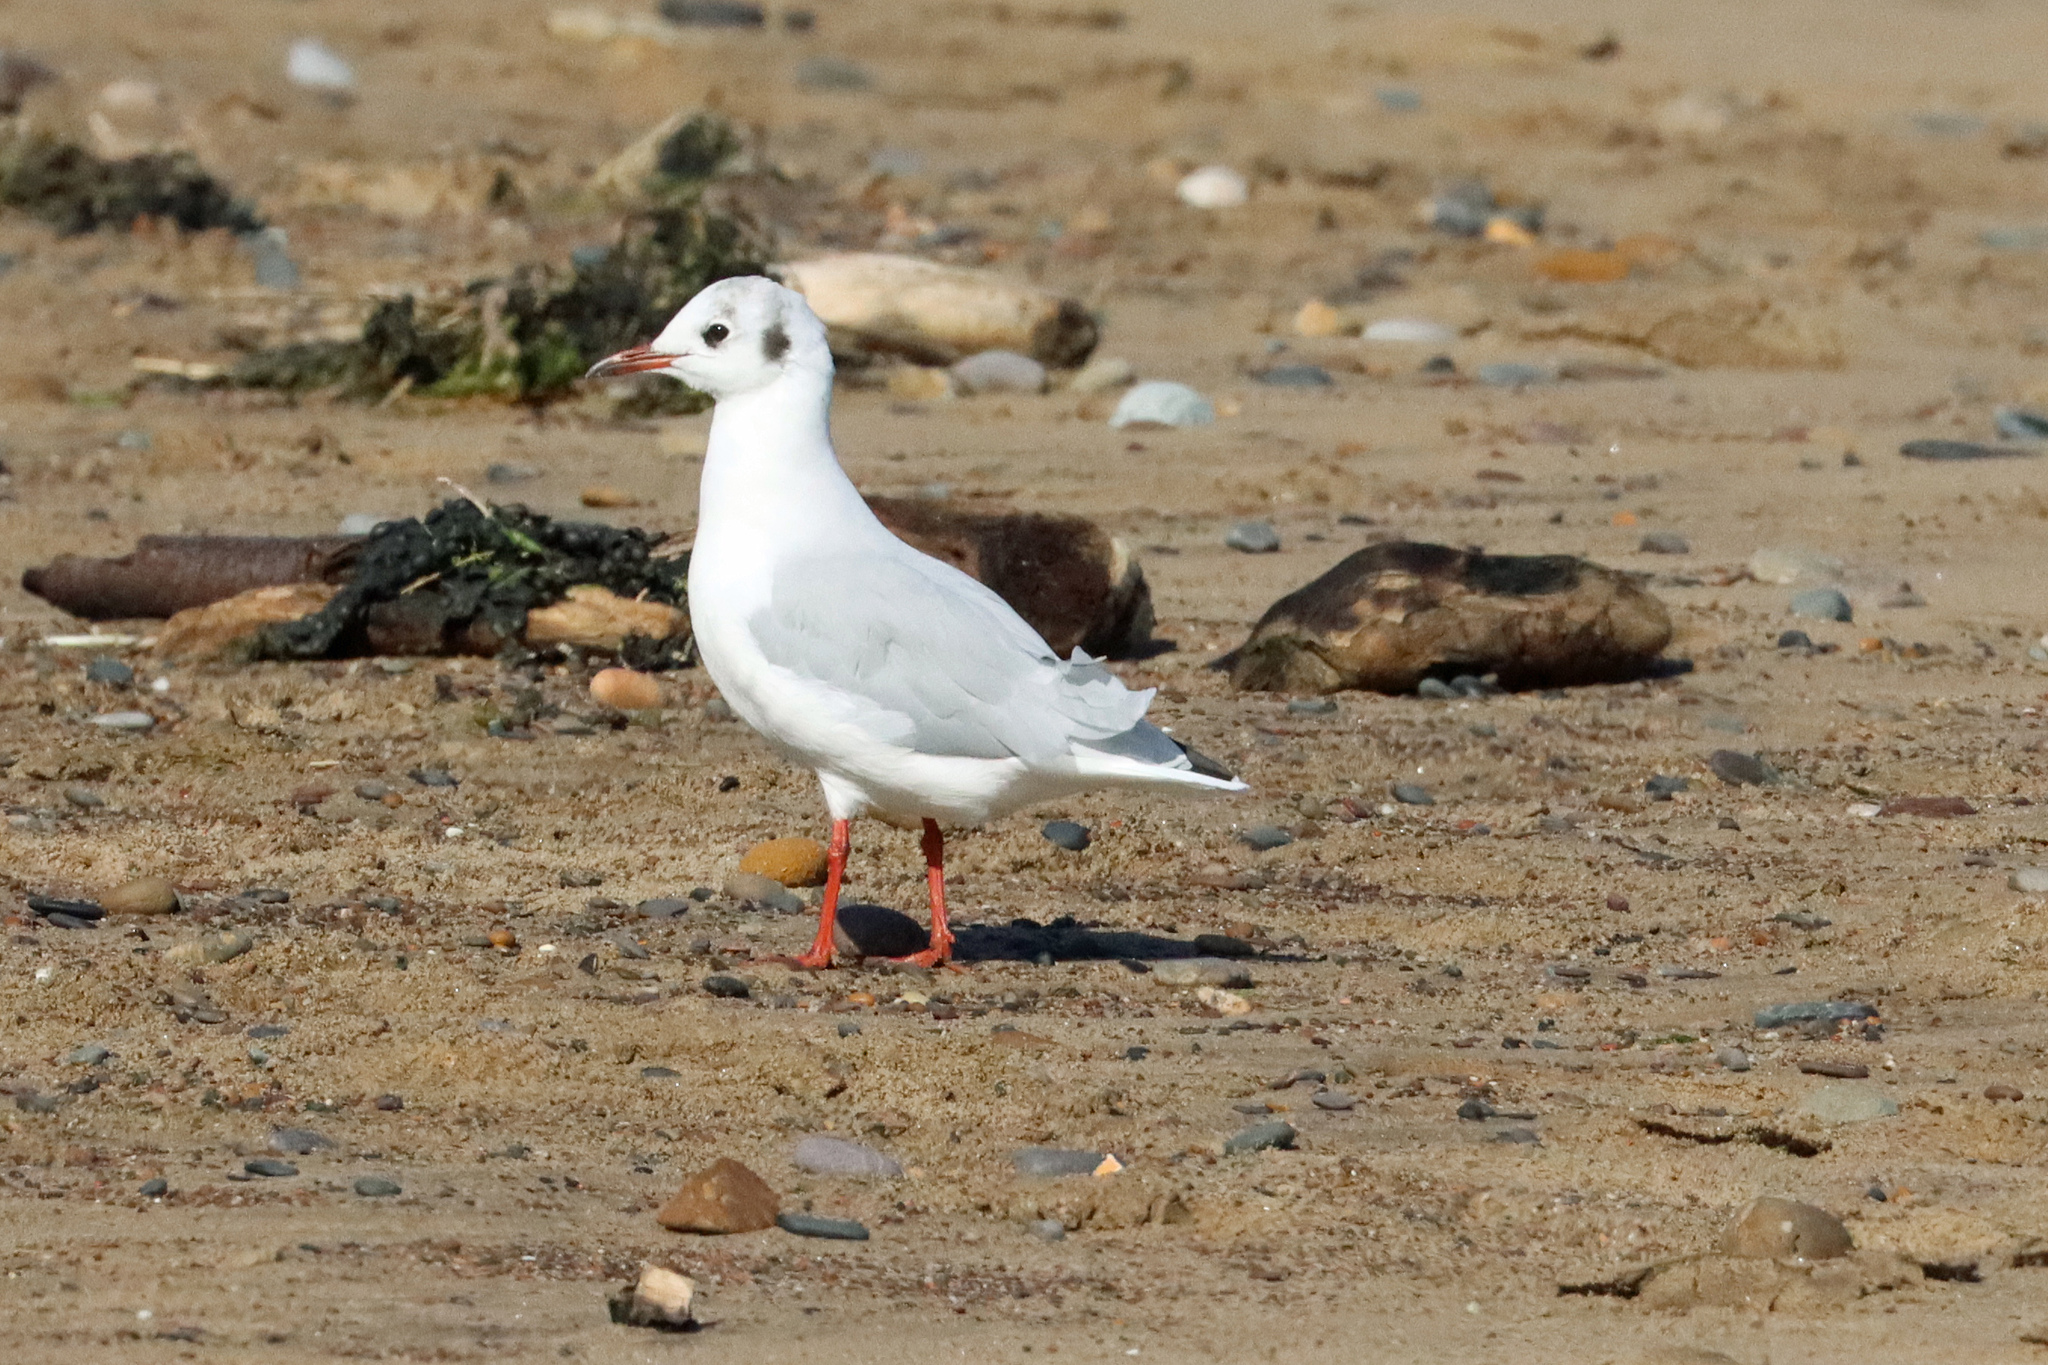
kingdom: Animalia
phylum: Chordata
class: Aves
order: Charadriiformes
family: Laridae
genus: Chroicocephalus
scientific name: Chroicocephalus ridibundus
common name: Black-headed gull
